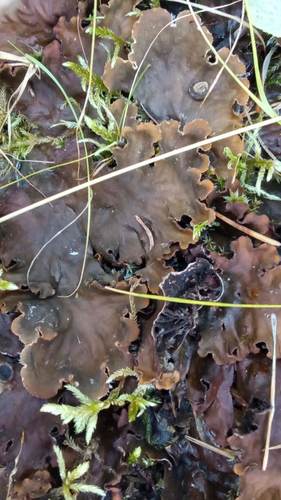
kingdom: Fungi
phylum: Ascomycota
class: Lecanoromycetes
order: Peltigerales
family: Peltigeraceae
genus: Peltigera
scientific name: Peltigera
